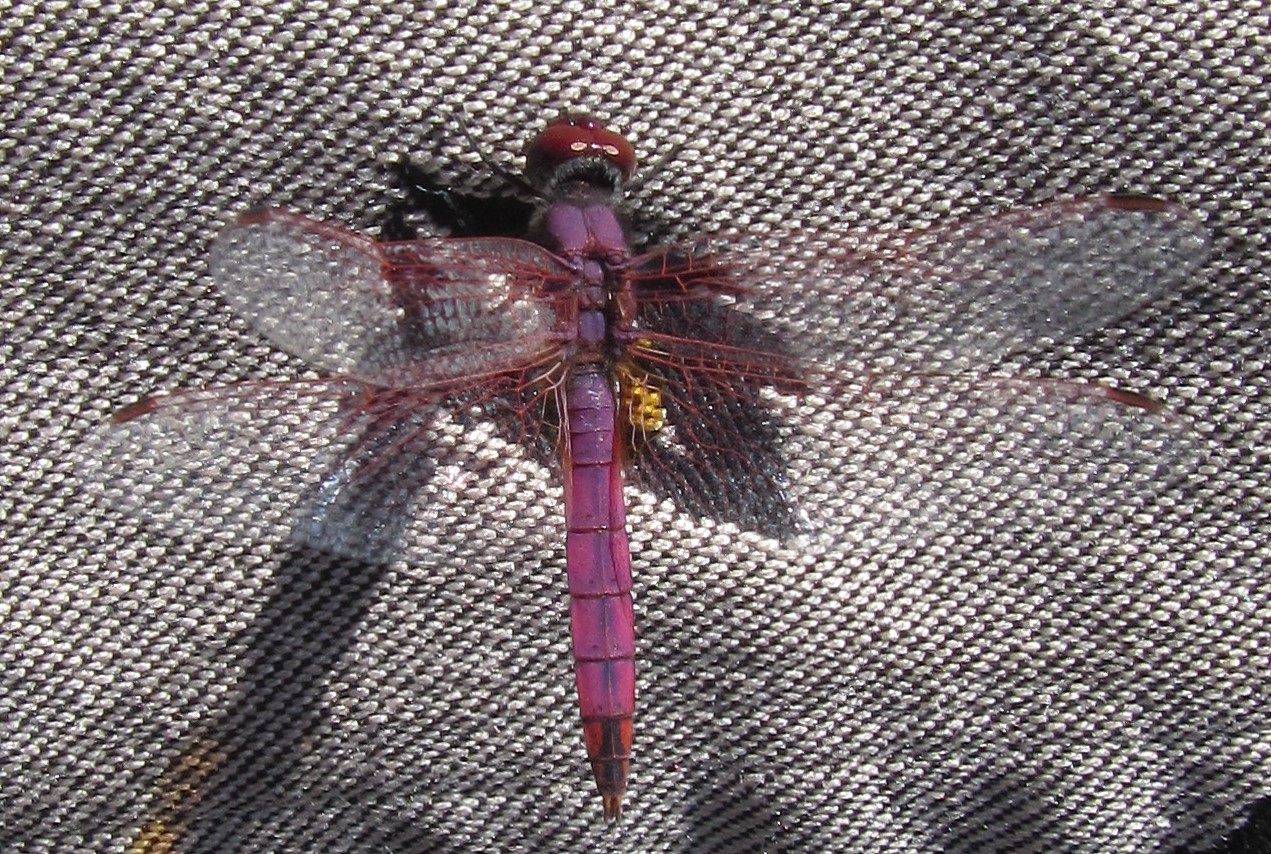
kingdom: Animalia
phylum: Arthropoda
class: Insecta
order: Odonata
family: Libellulidae
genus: Trithemis
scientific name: Trithemis annulata
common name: Violet dropwing
